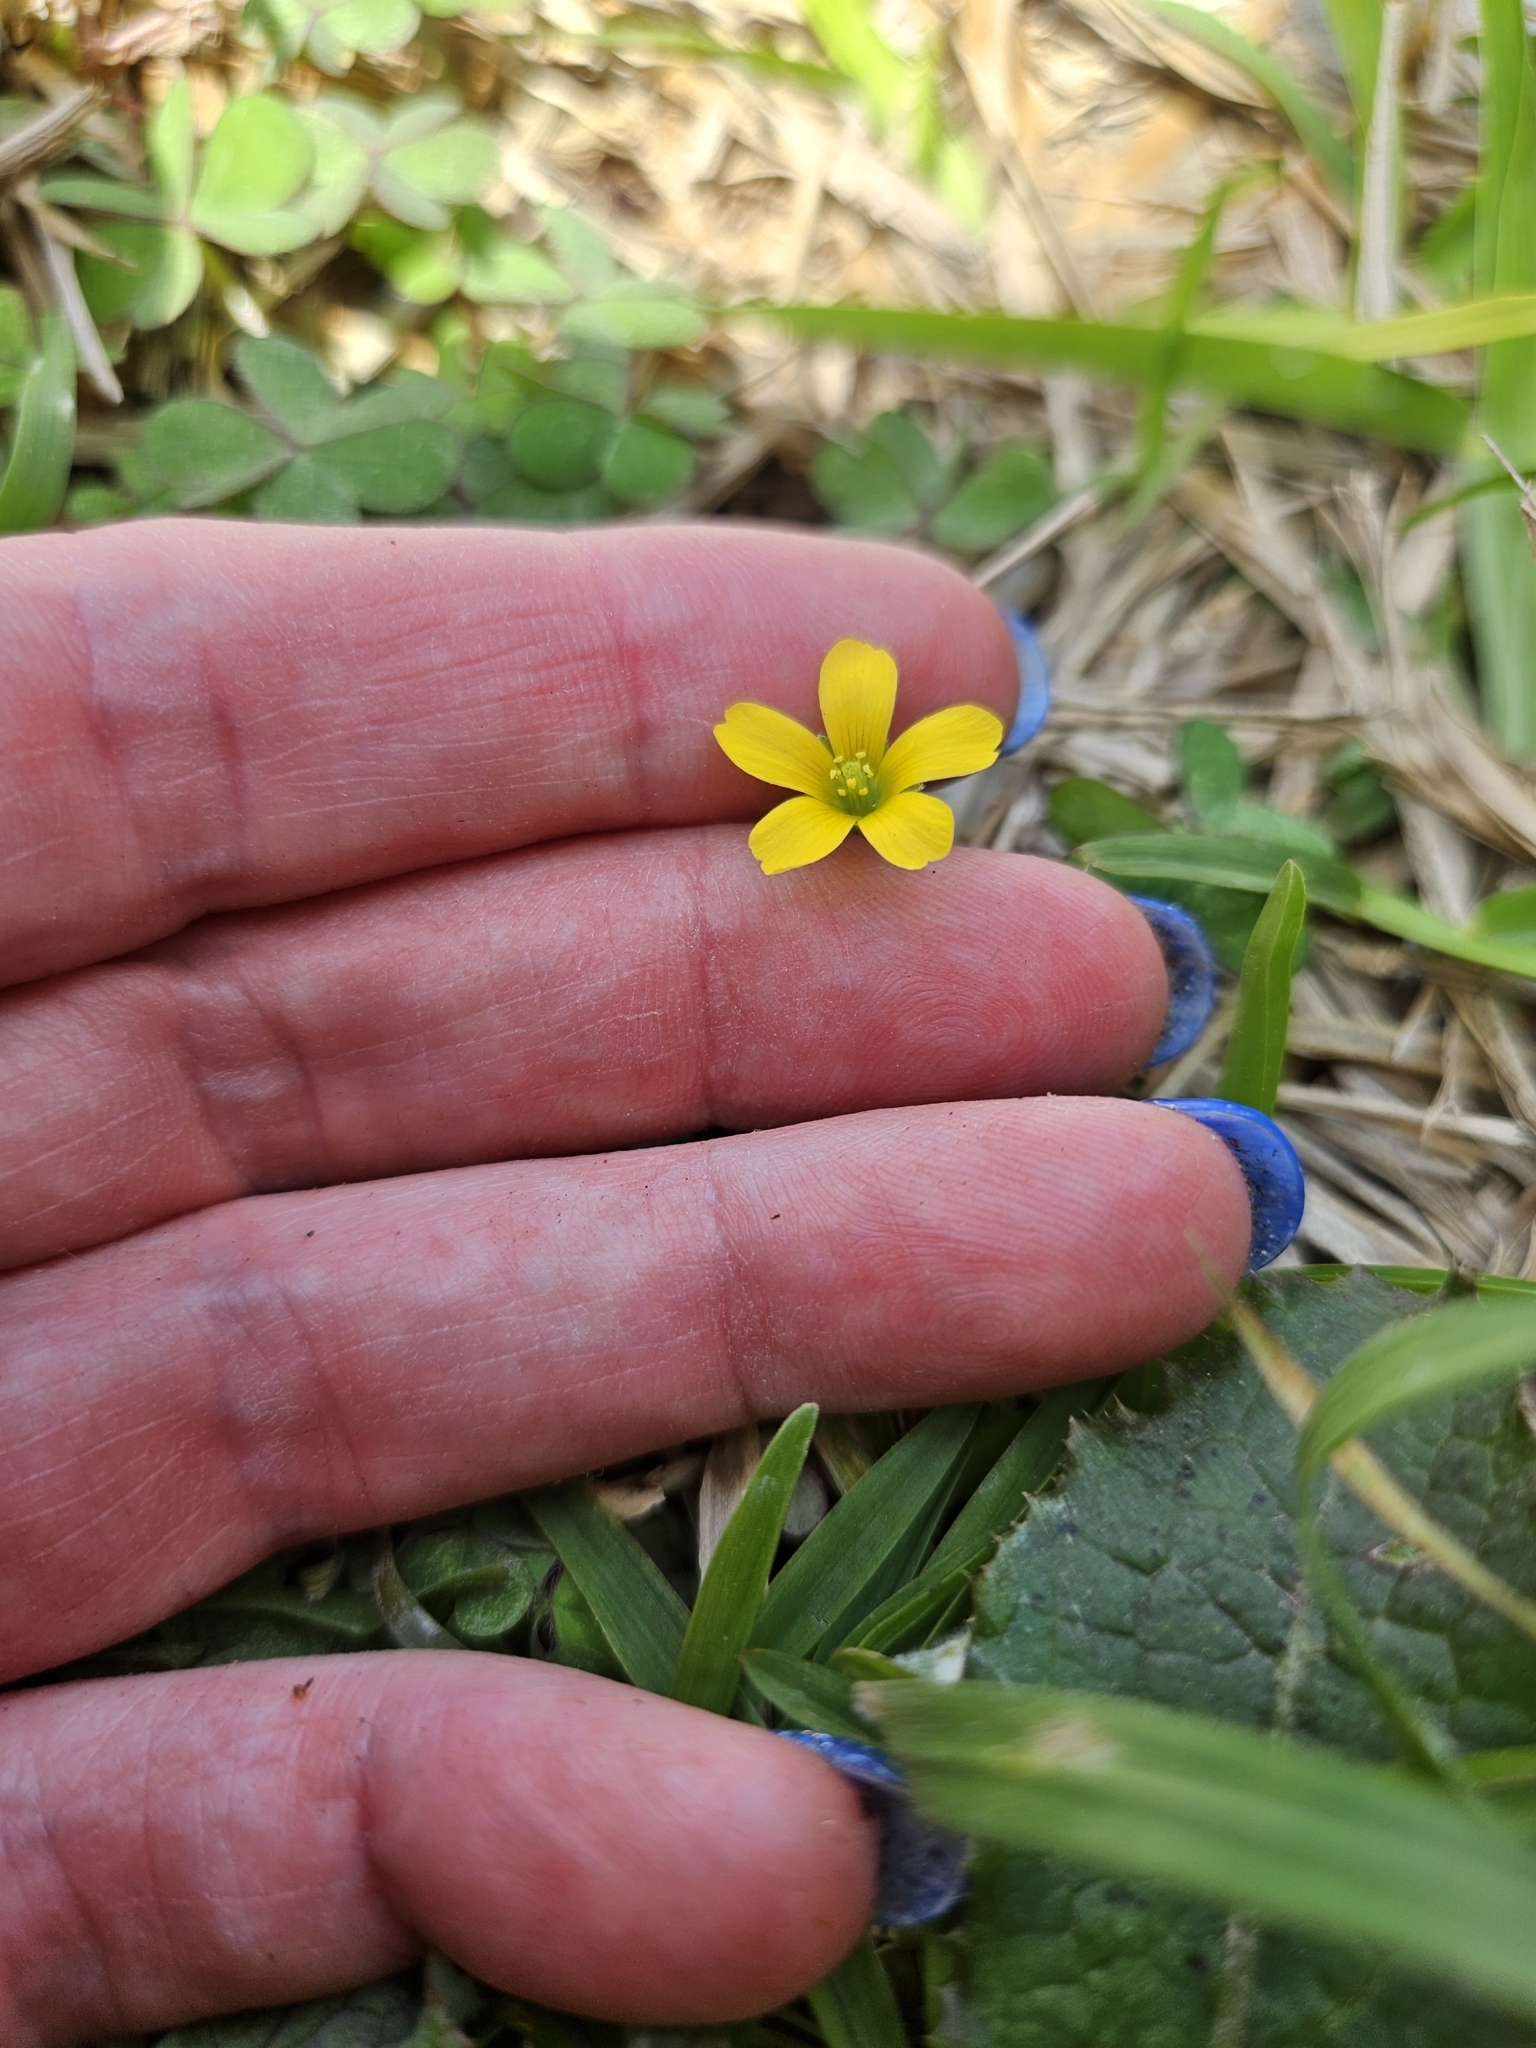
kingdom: Plantae
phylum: Tracheophyta
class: Magnoliopsida
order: Oxalidales
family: Oxalidaceae
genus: Oxalis
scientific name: Oxalis dillenii
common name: Sussex yellow-sorrel
